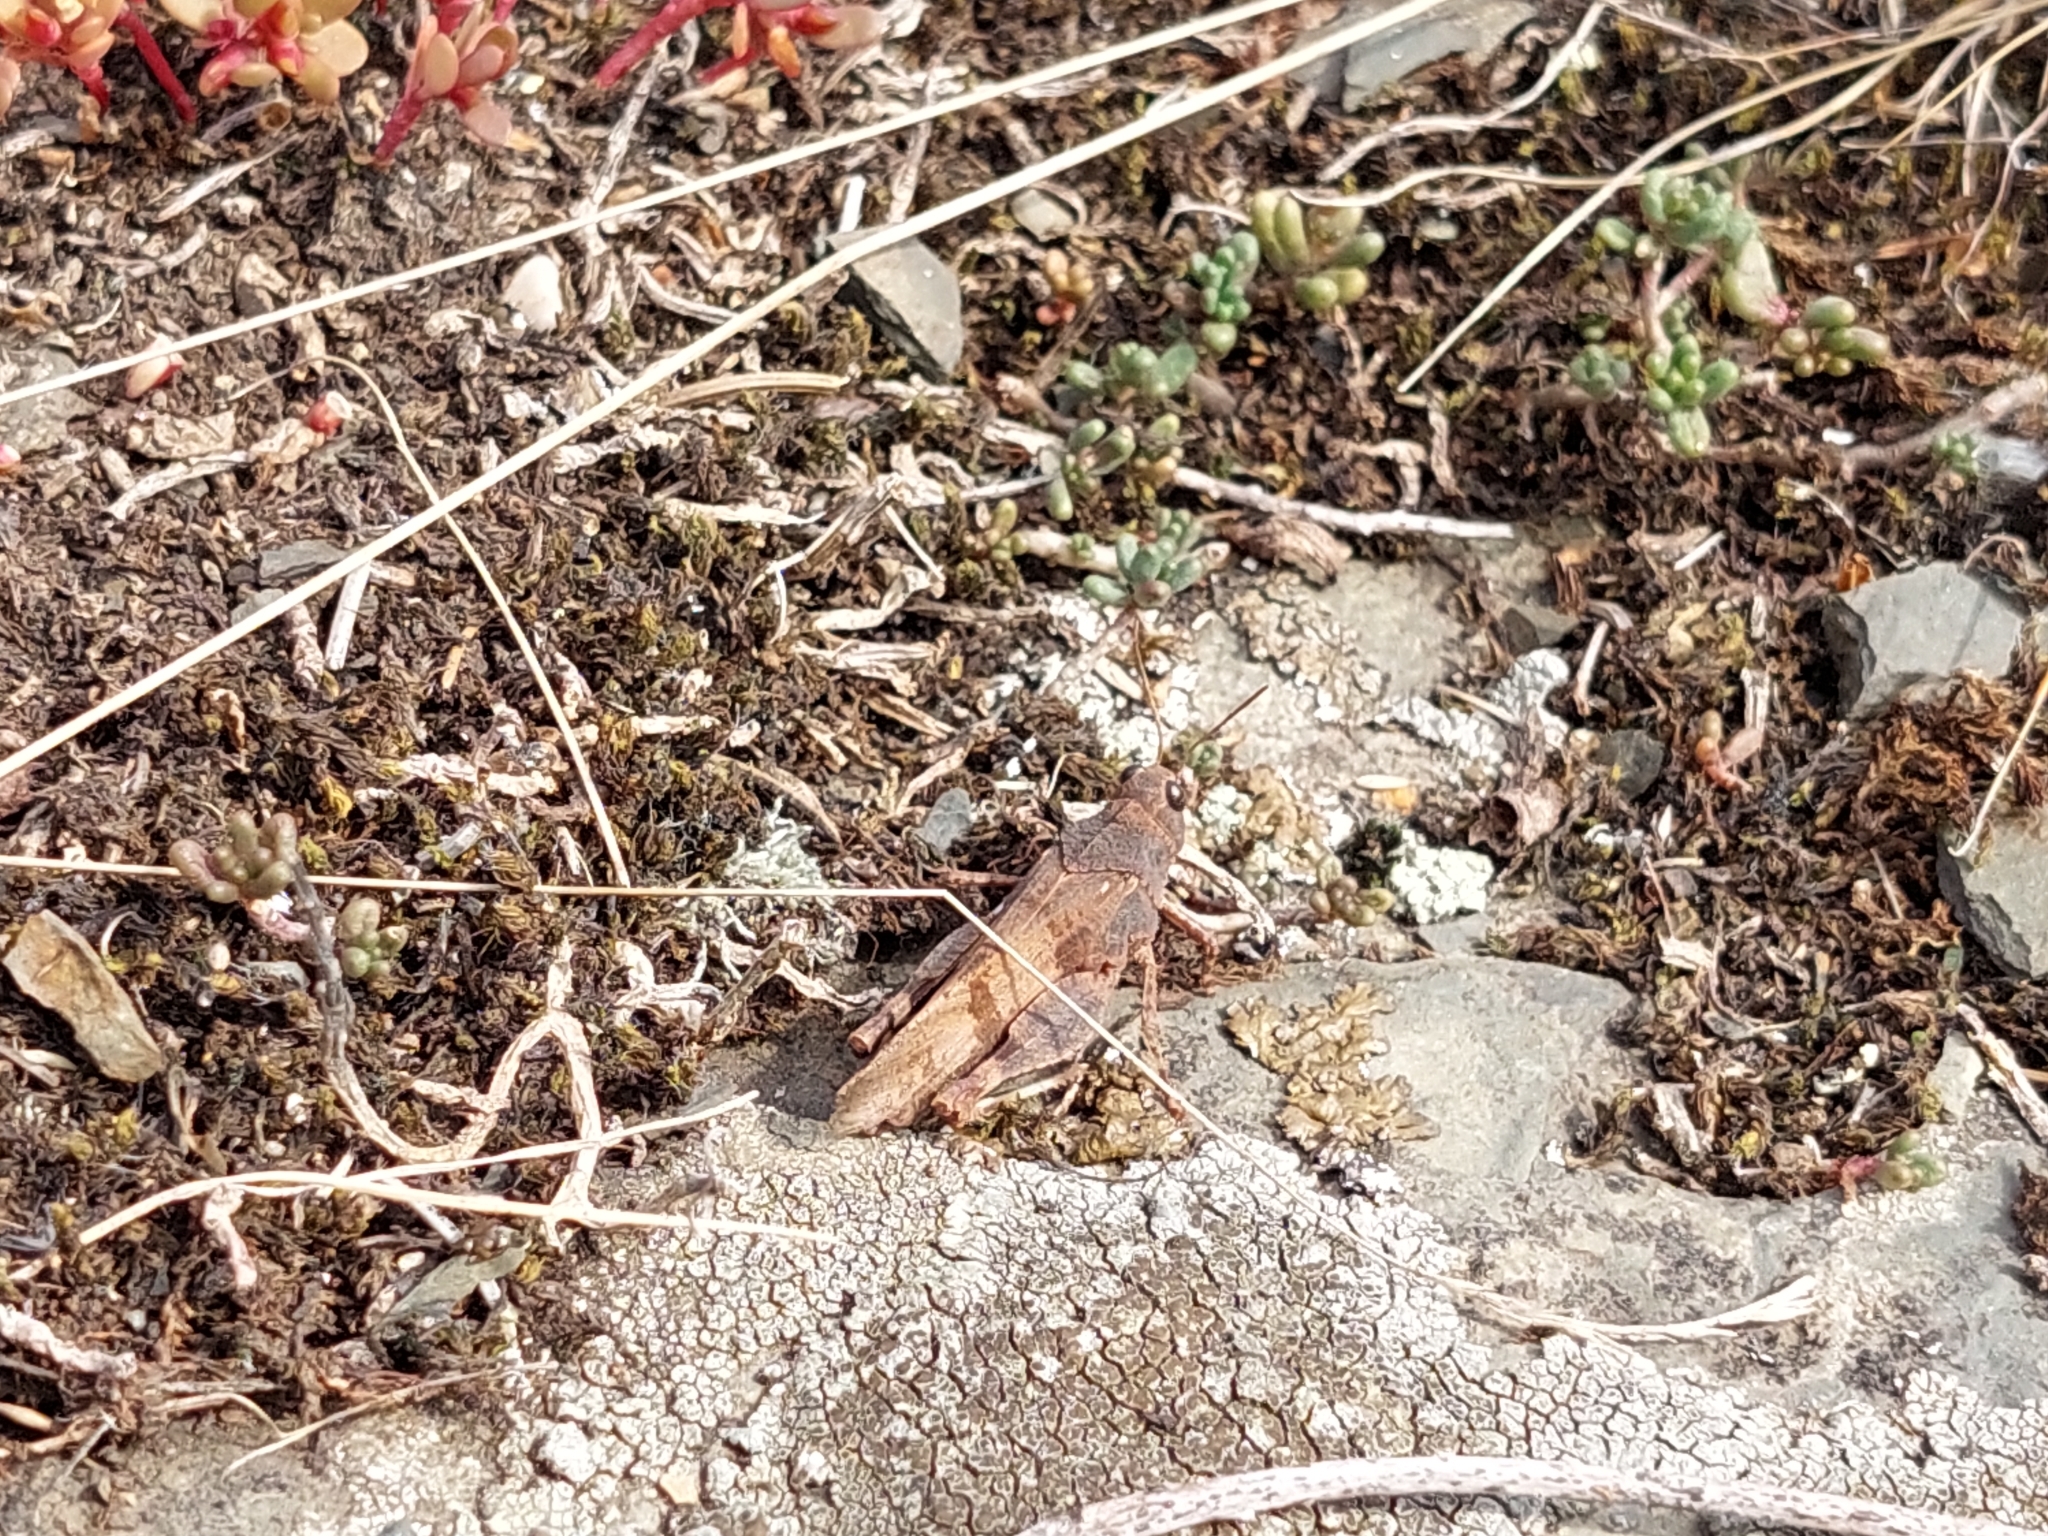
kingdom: Animalia
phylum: Arthropoda
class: Insecta
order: Orthoptera
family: Acrididae
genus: Oedipoda
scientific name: Oedipoda caerulescens
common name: Blue-winged grasshopper
